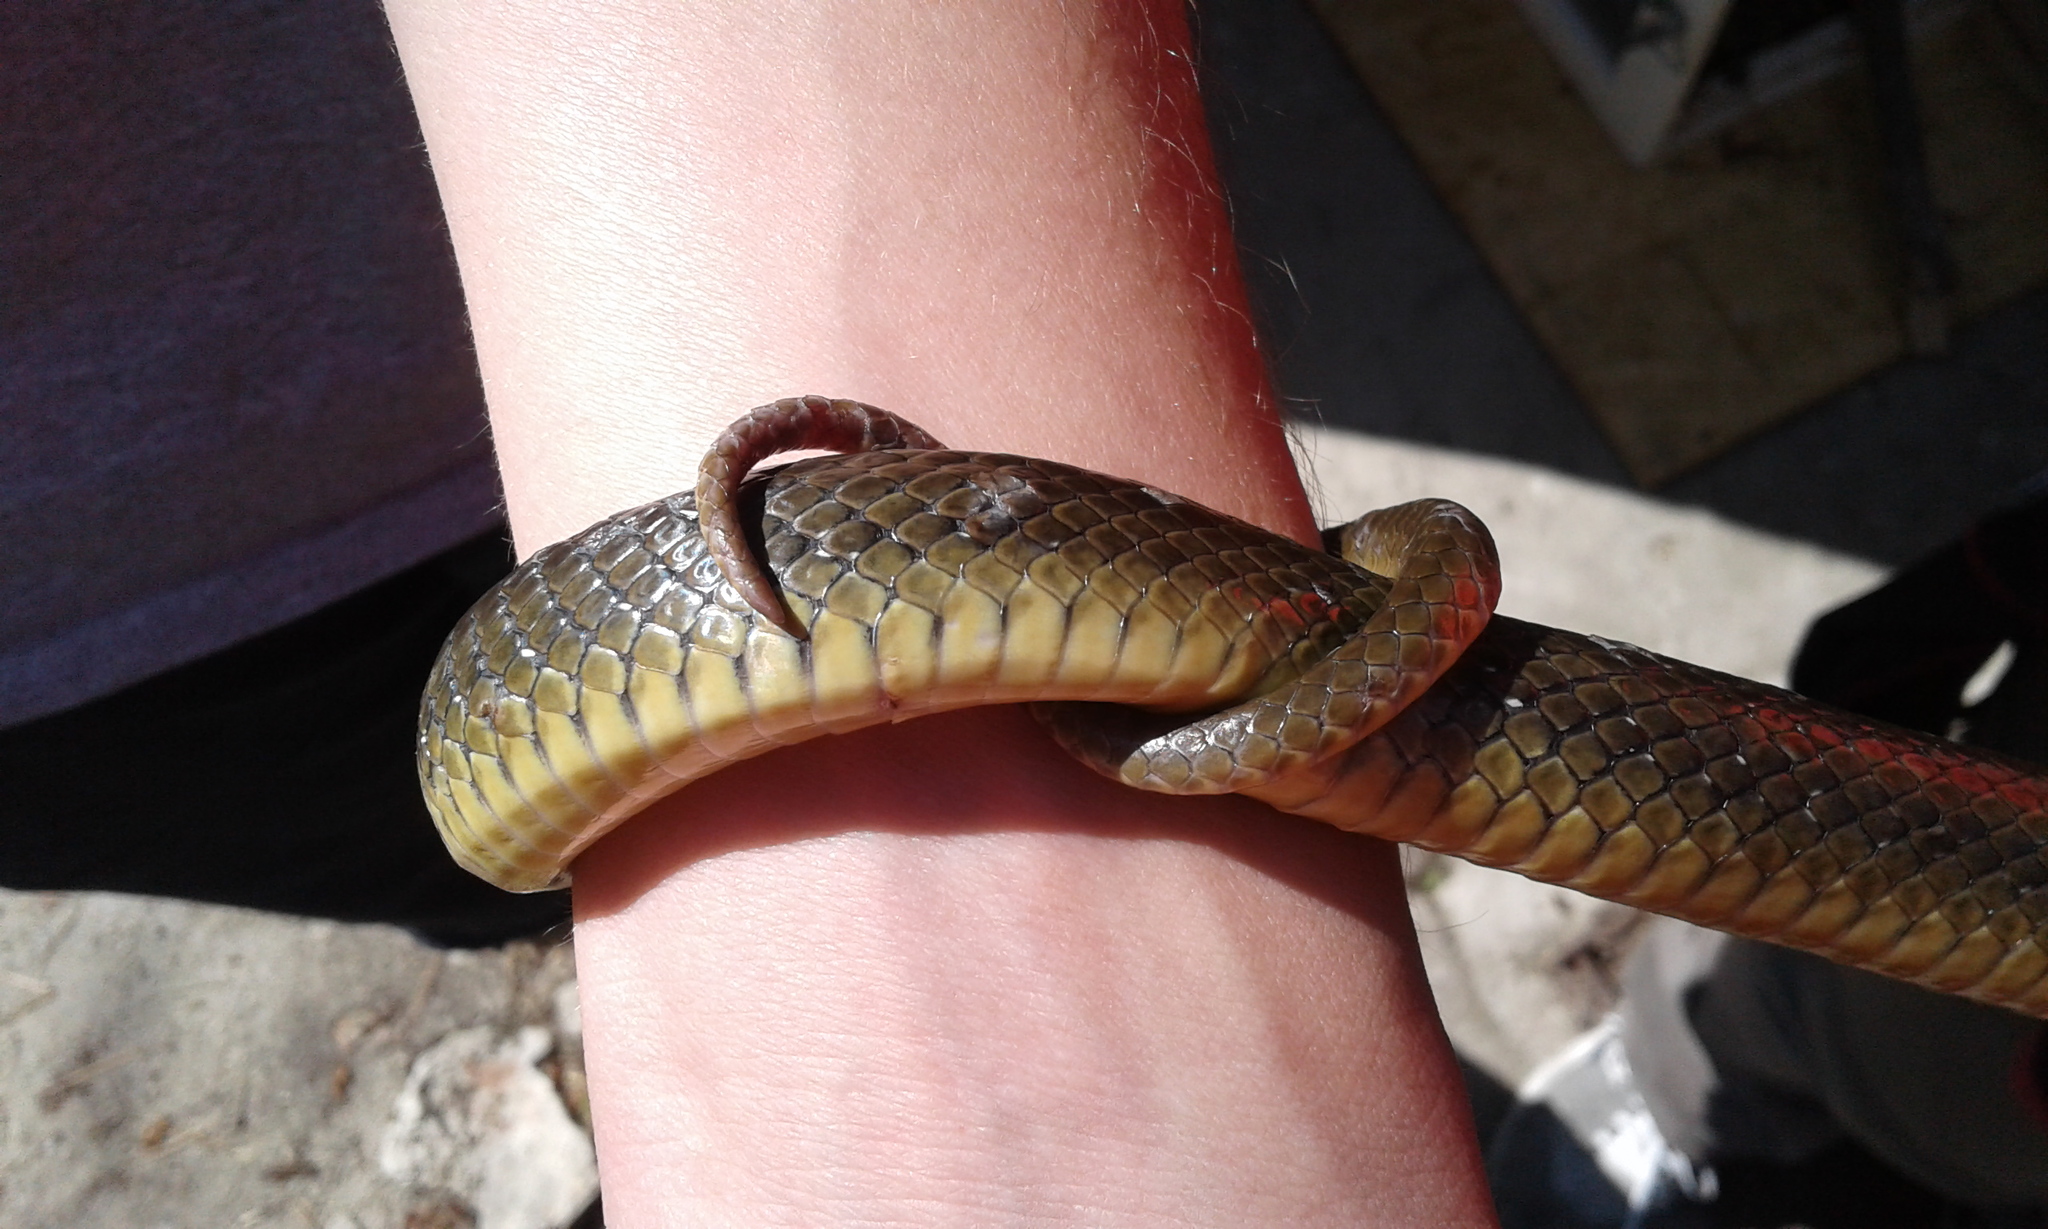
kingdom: Animalia
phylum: Chordata
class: Squamata
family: Colubridae
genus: Zamenis
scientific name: Zamenis longissimus
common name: Aesculapean snake
